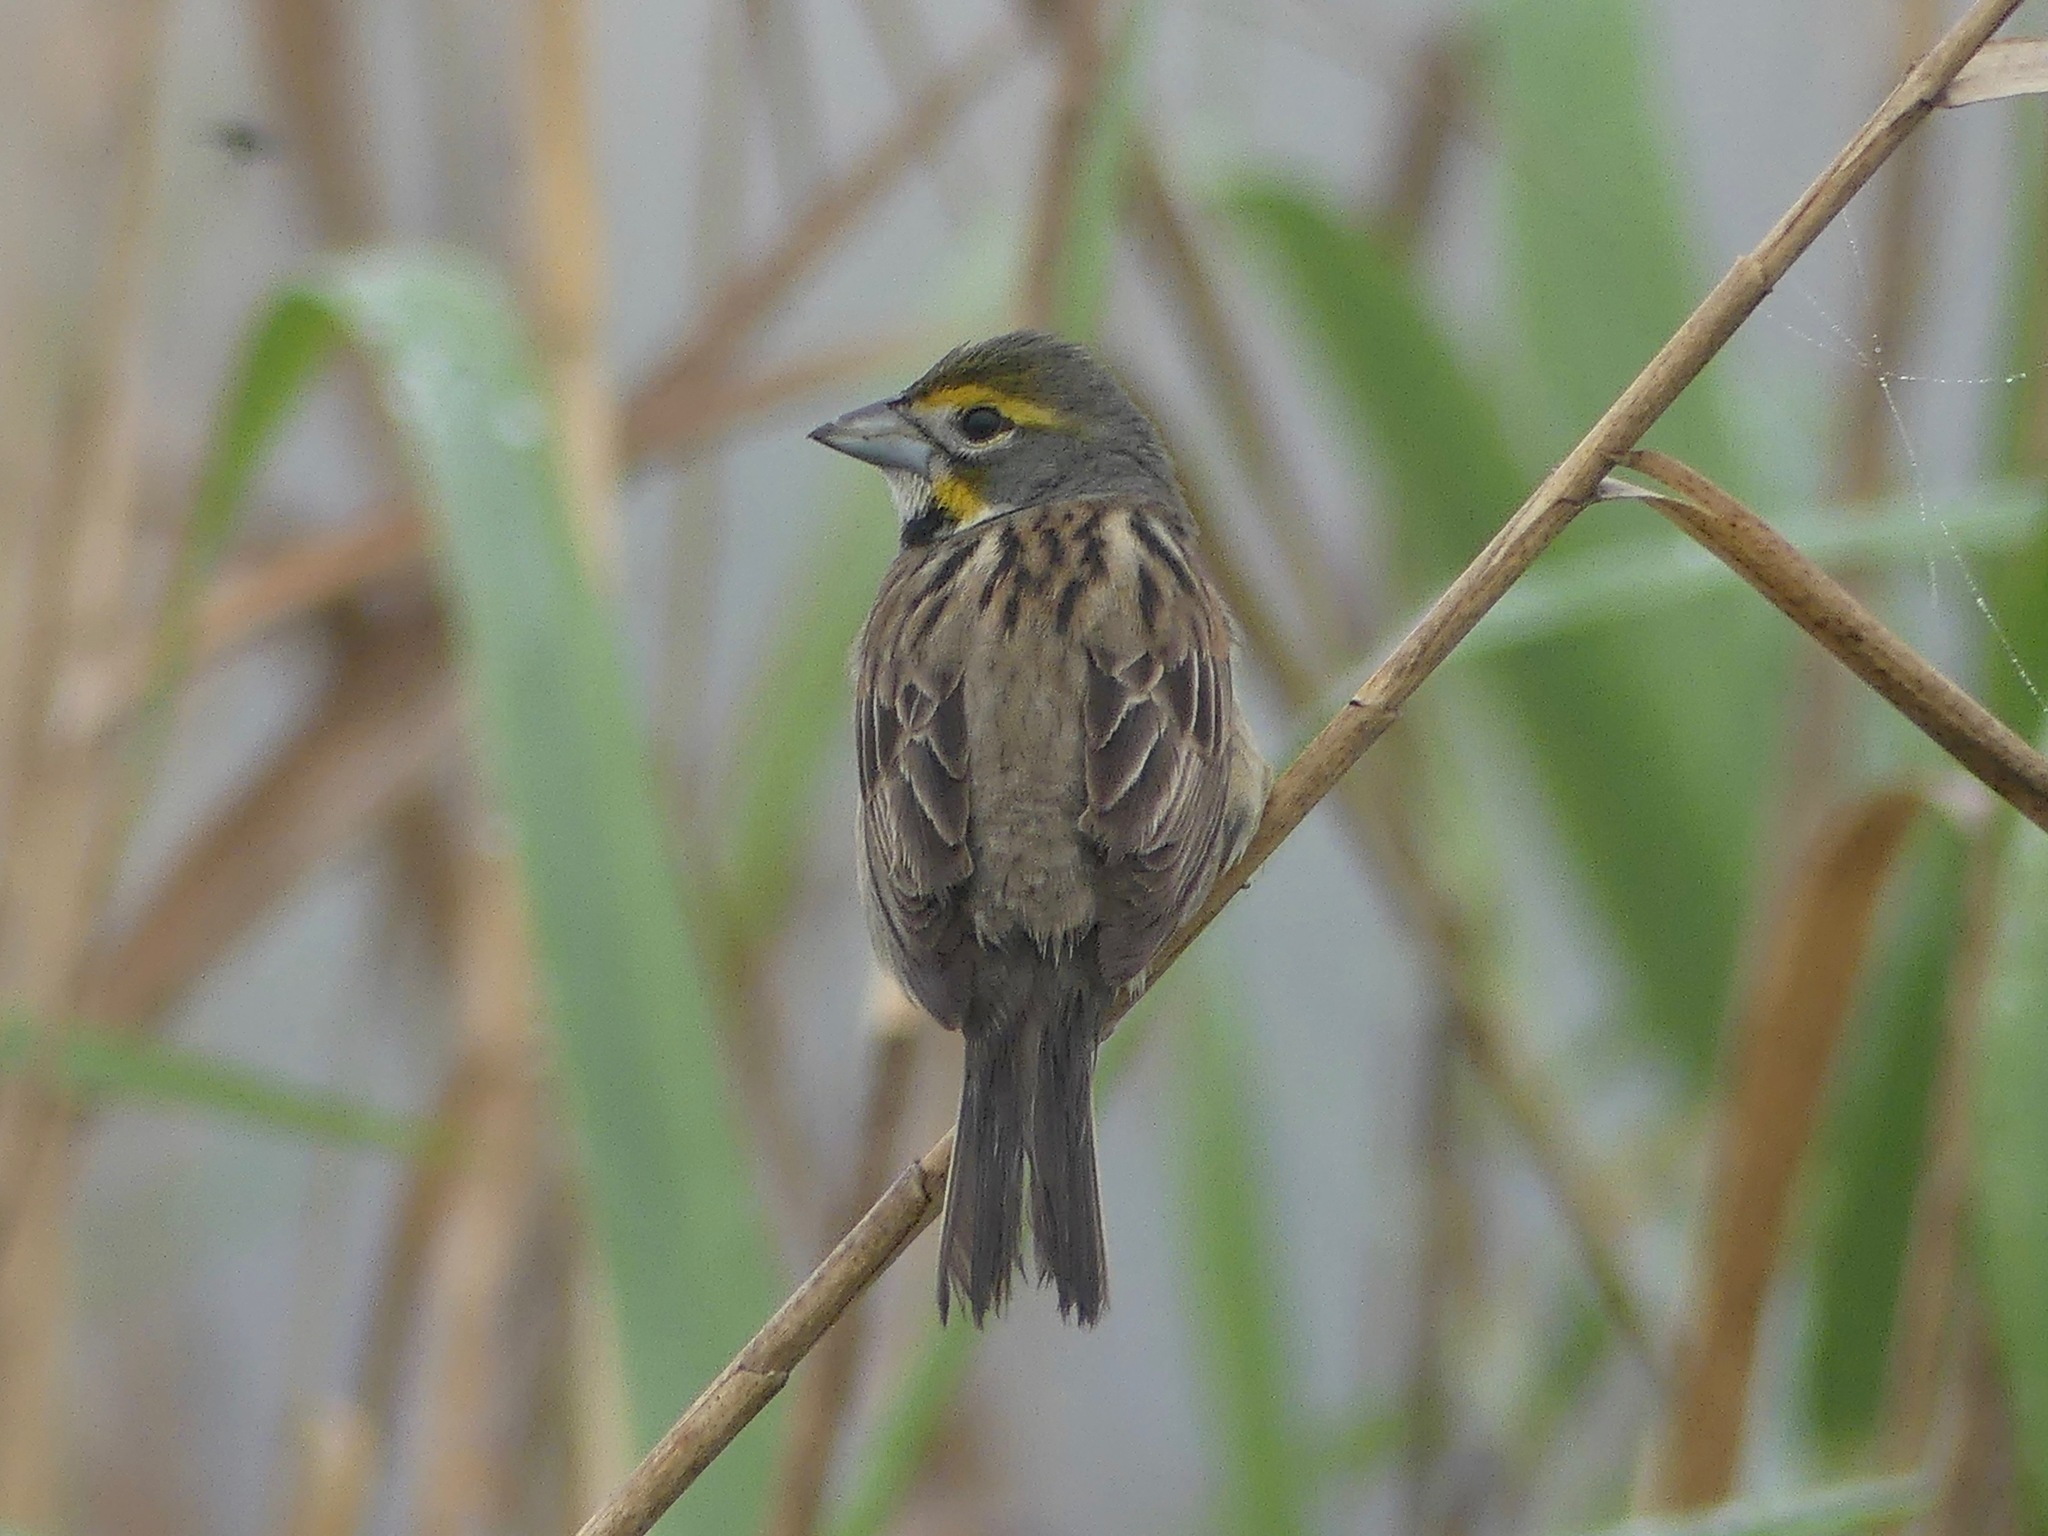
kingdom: Animalia
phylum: Chordata
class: Aves
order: Passeriformes
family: Cardinalidae
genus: Spiza
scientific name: Spiza americana
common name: Dickcissel
